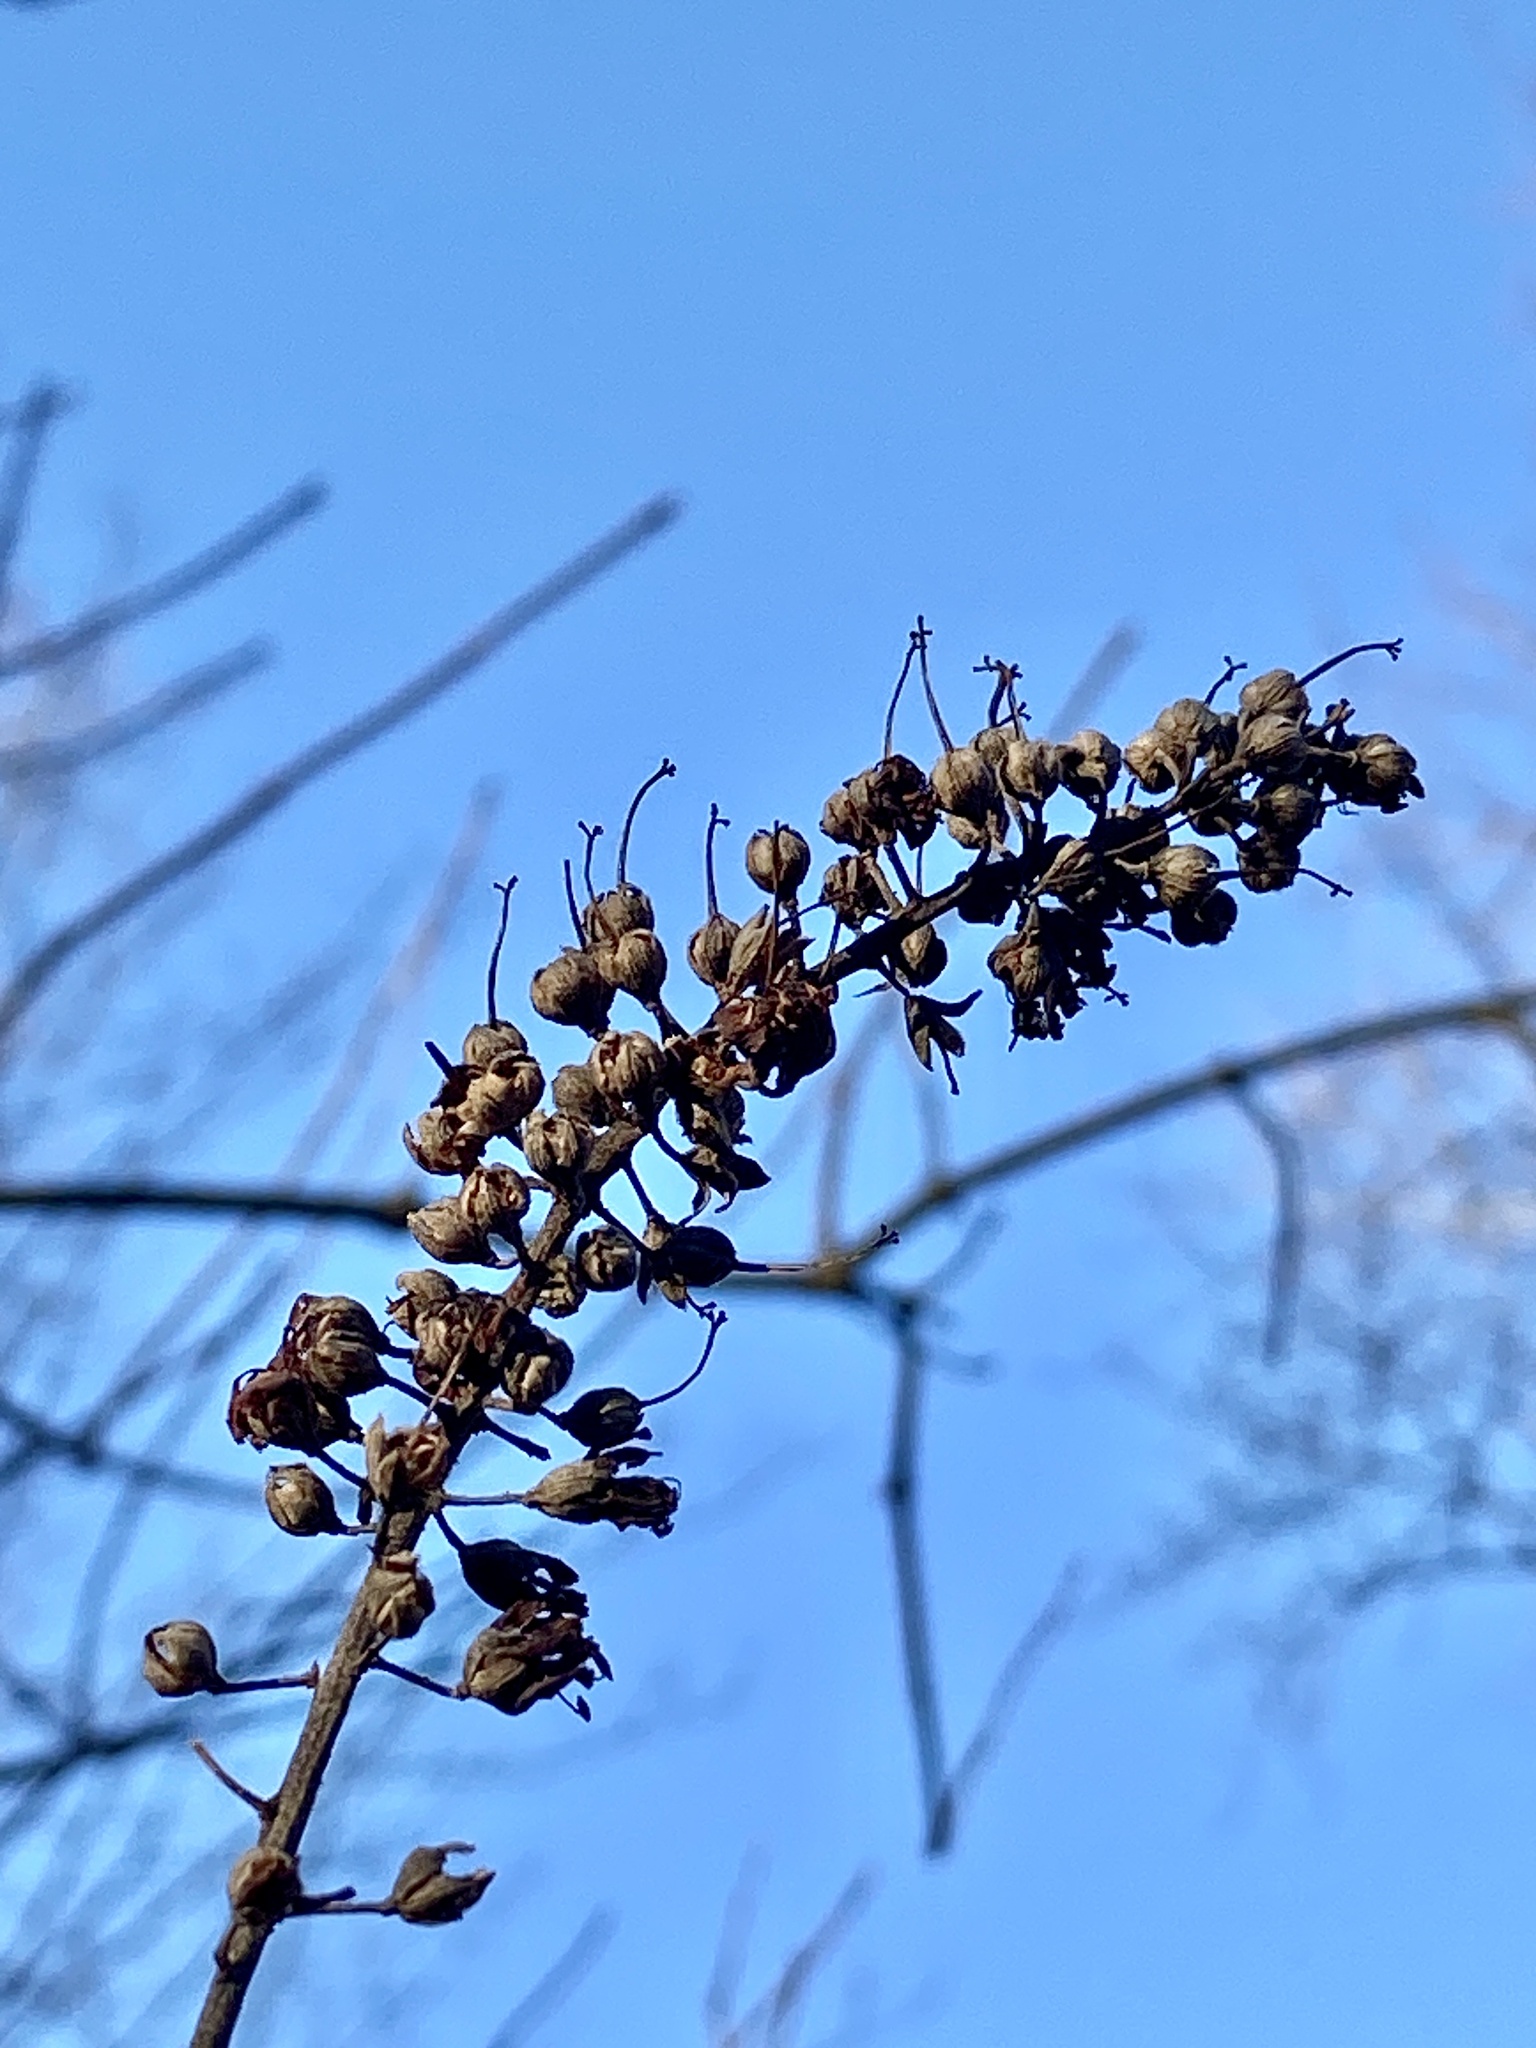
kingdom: Plantae
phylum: Tracheophyta
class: Magnoliopsida
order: Ericales
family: Clethraceae
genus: Clethra
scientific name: Clethra alnifolia
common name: Sweet pepperbush
